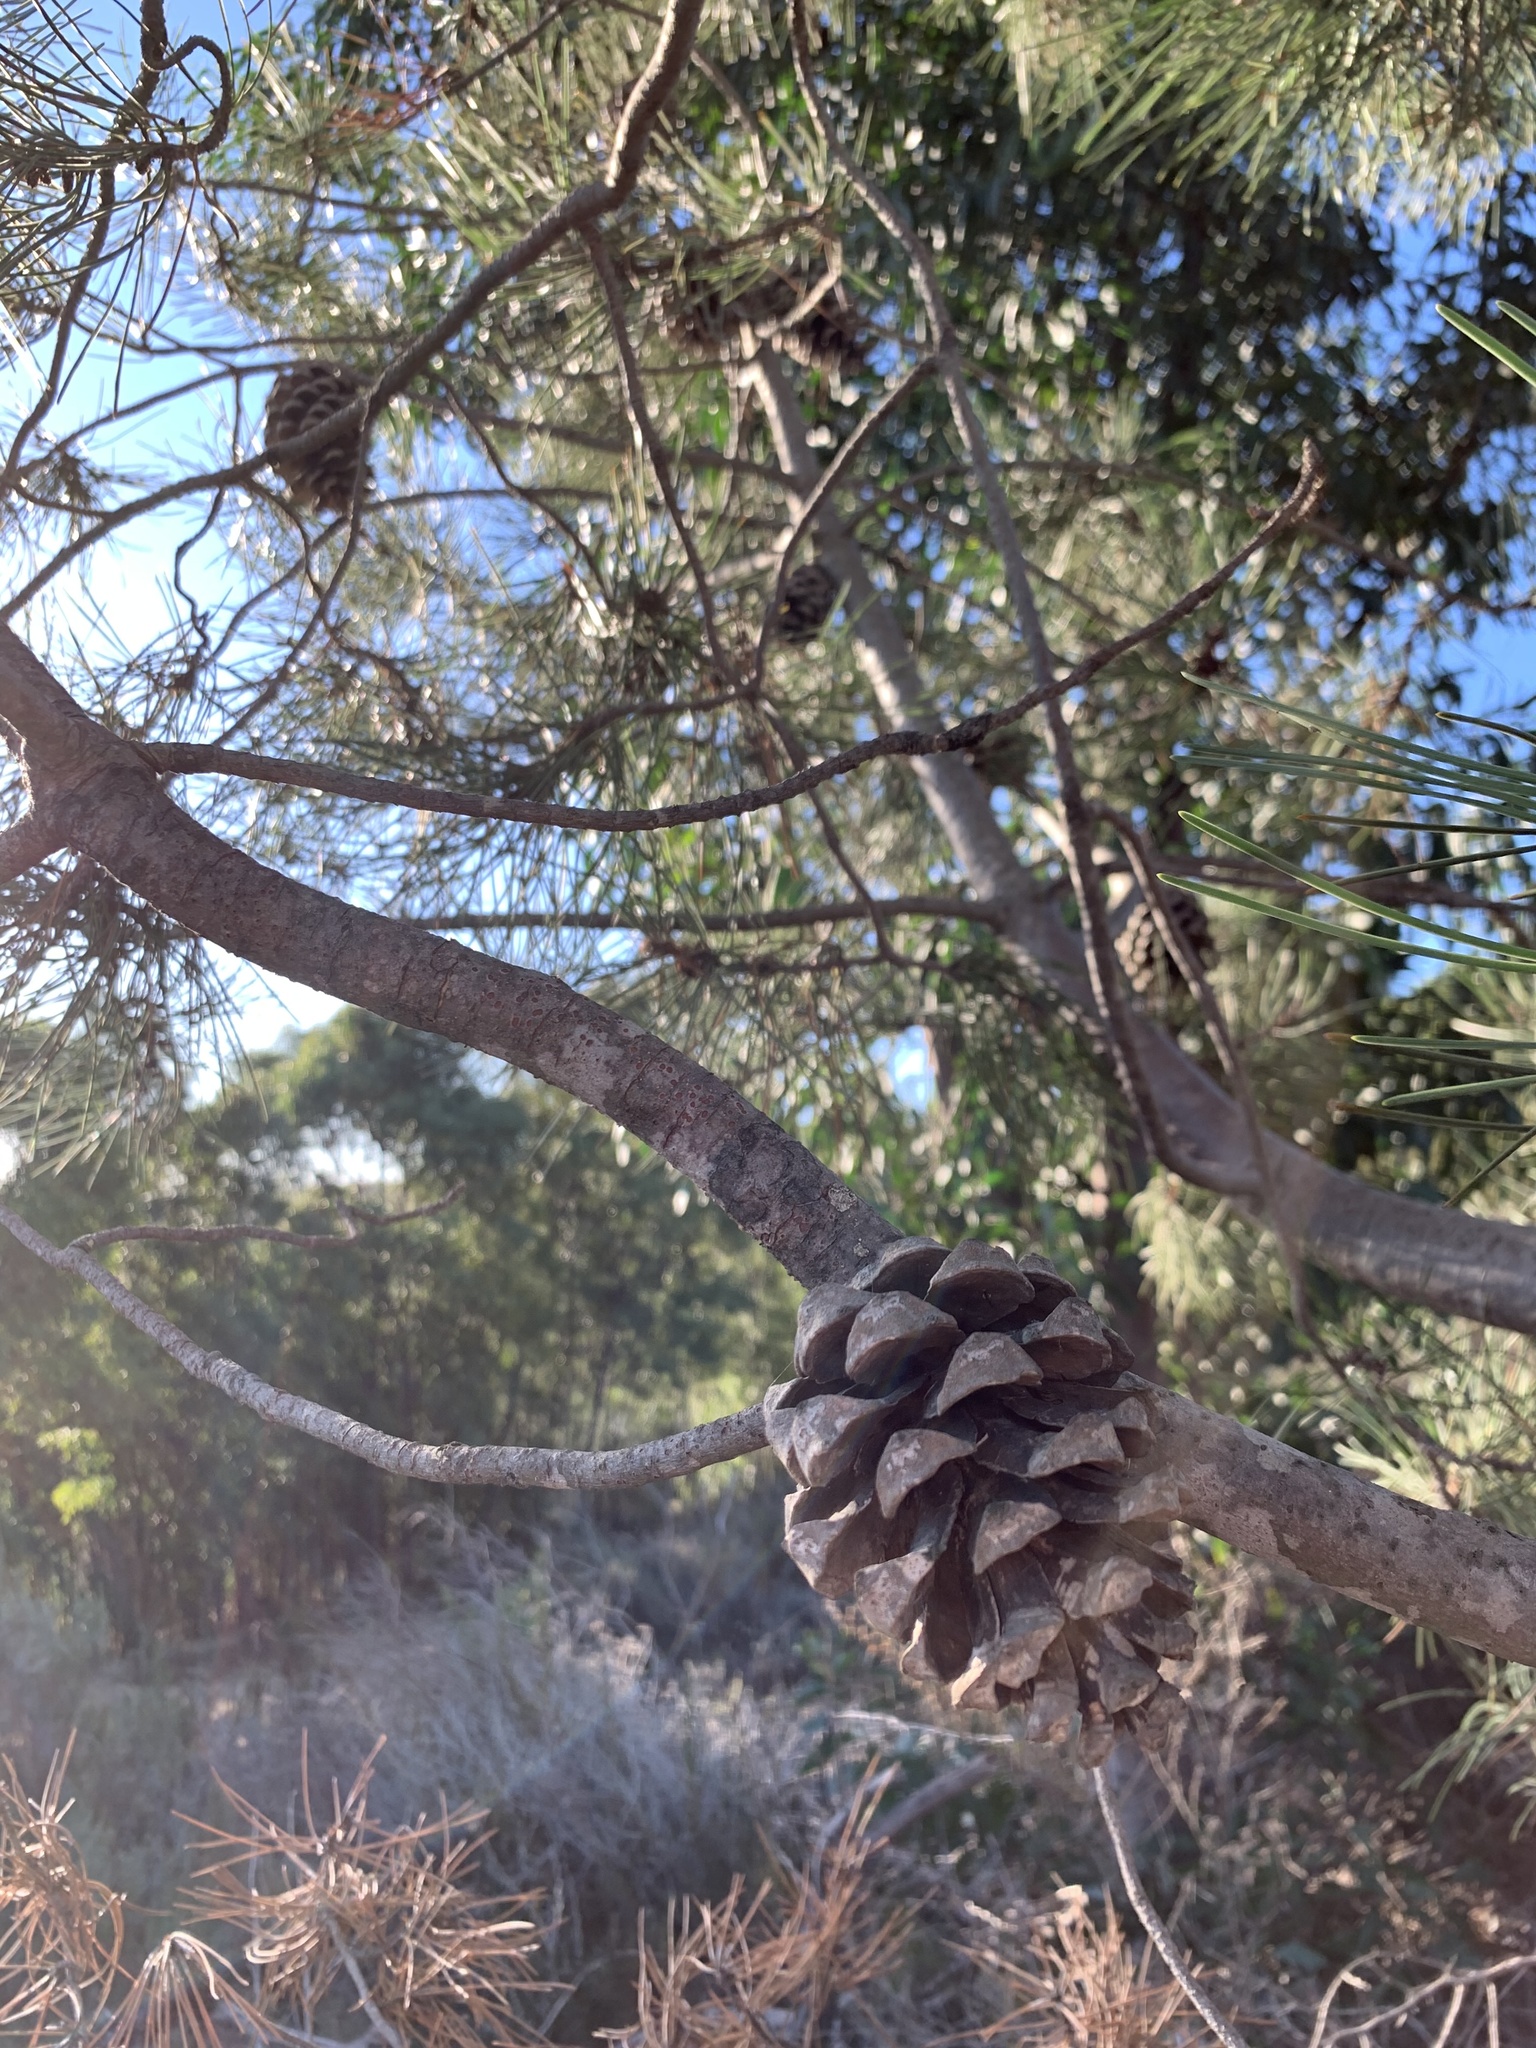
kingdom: Plantae
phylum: Tracheophyta
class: Pinopsida
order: Pinales
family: Pinaceae
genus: Pinus
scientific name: Pinus pinaster
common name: Maritime pine
